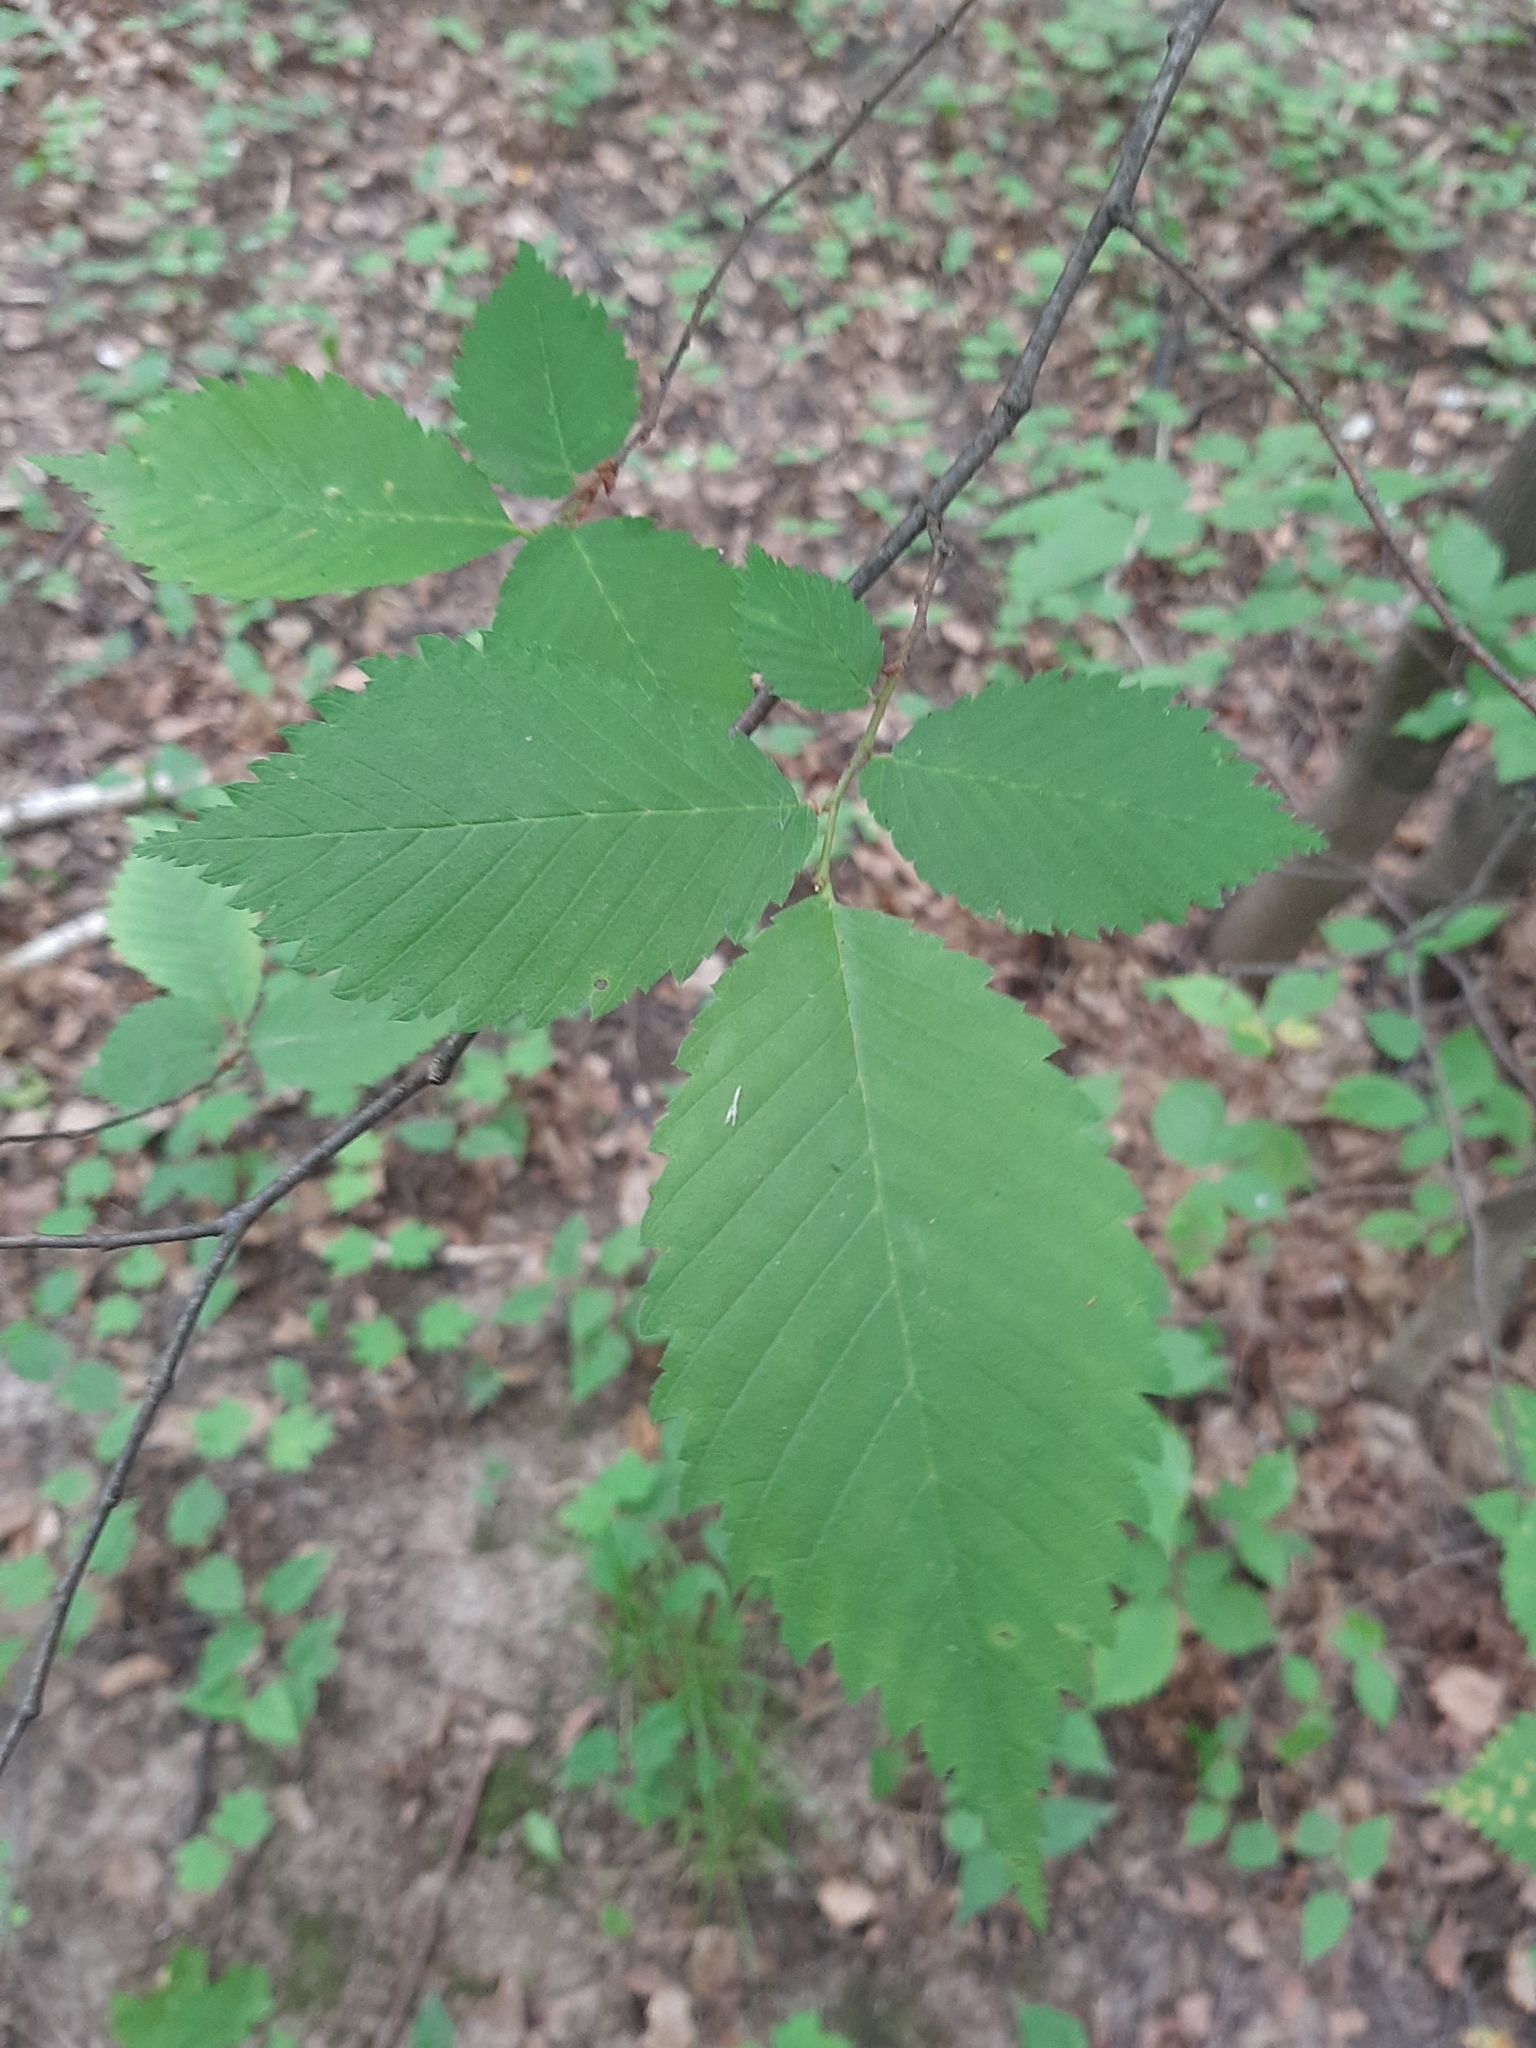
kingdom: Plantae
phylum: Tracheophyta
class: Magnoliopsida
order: Rosales
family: Ulmaceae
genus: Ulmus
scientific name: Ulmus glabra
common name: Wych elm
